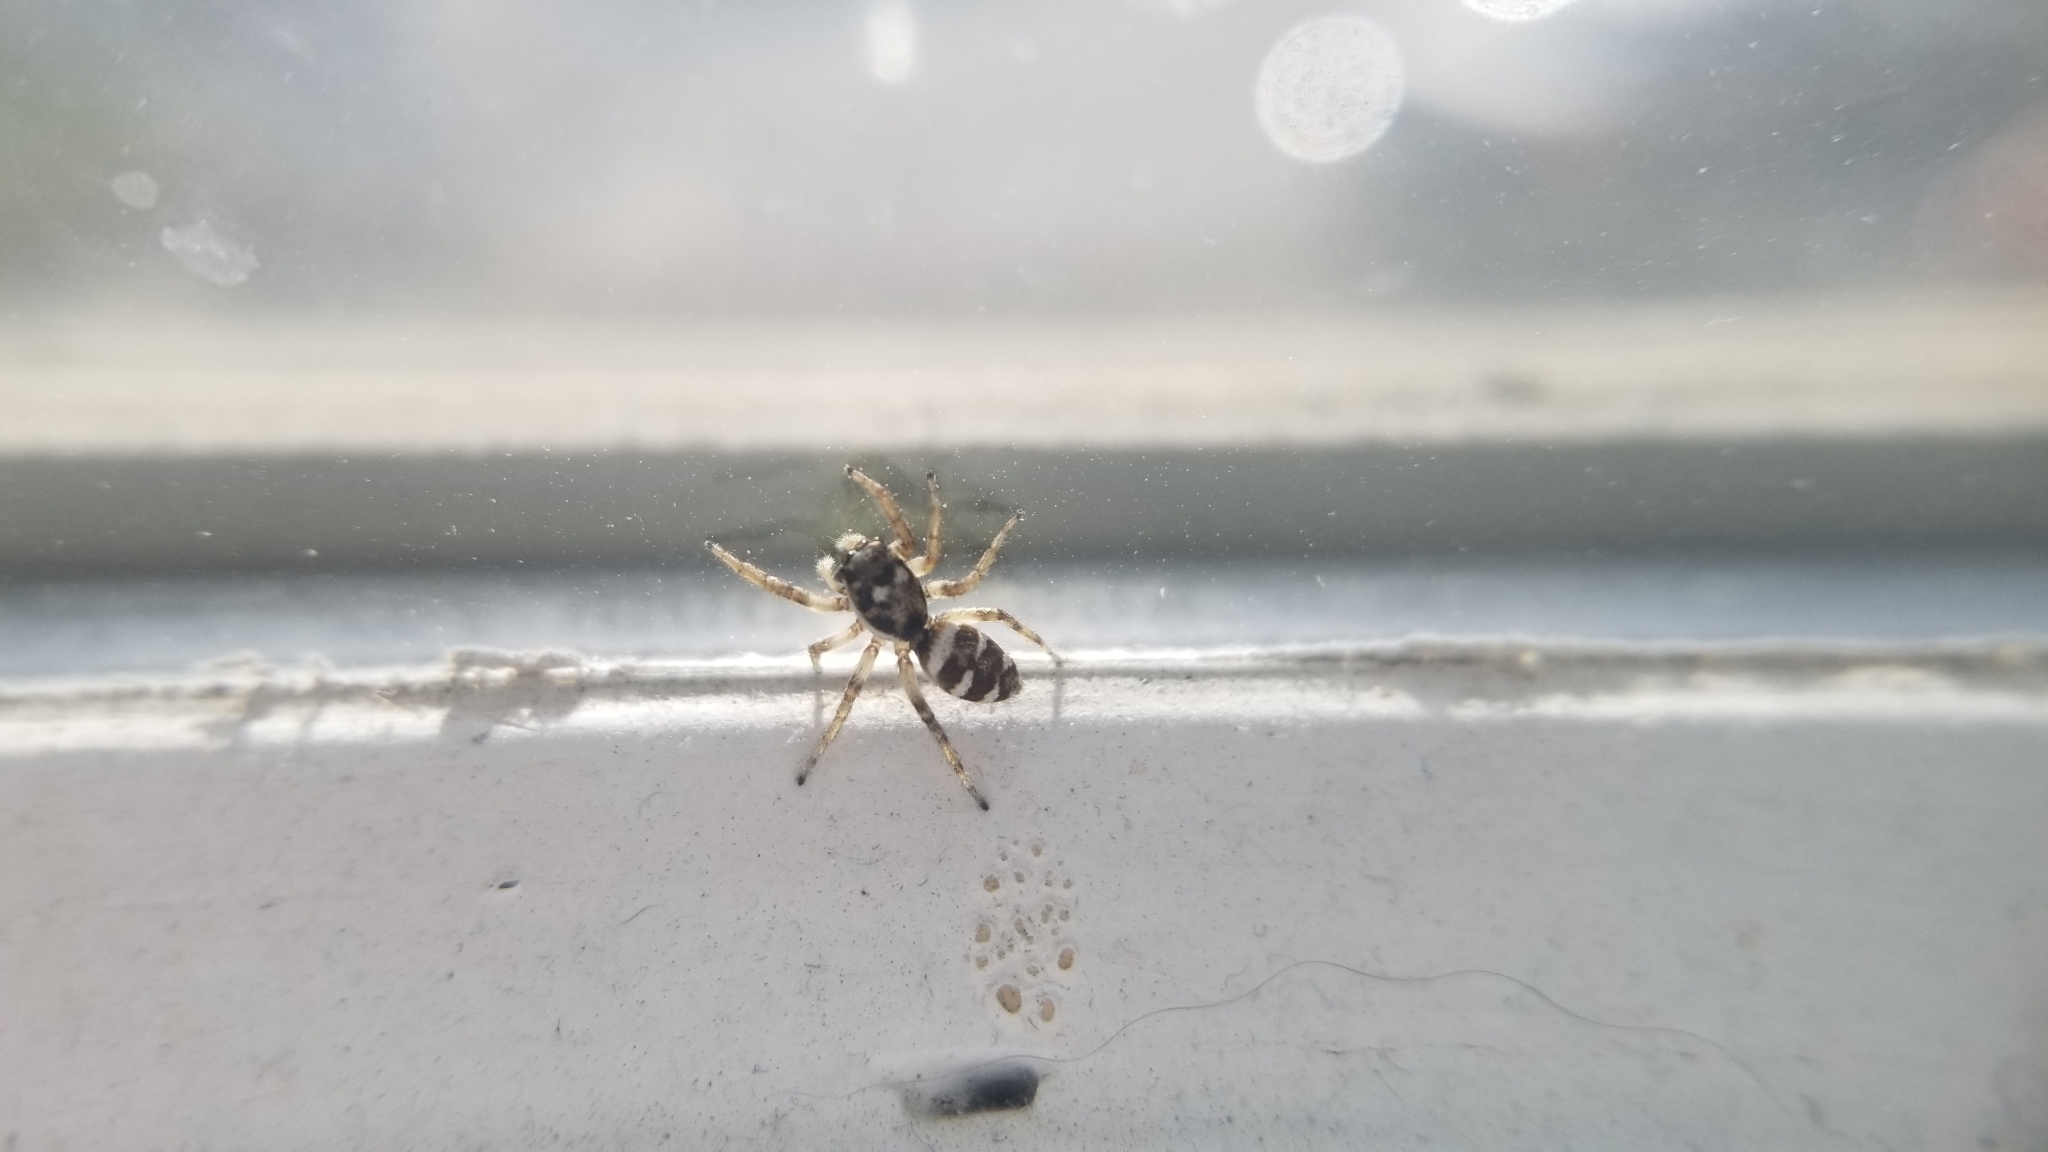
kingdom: Animalia
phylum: Arthropoda
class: Arachnida
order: Araneae
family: Salticidae
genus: Salticus
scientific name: Salticus scenicus
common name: Zebra jumper
